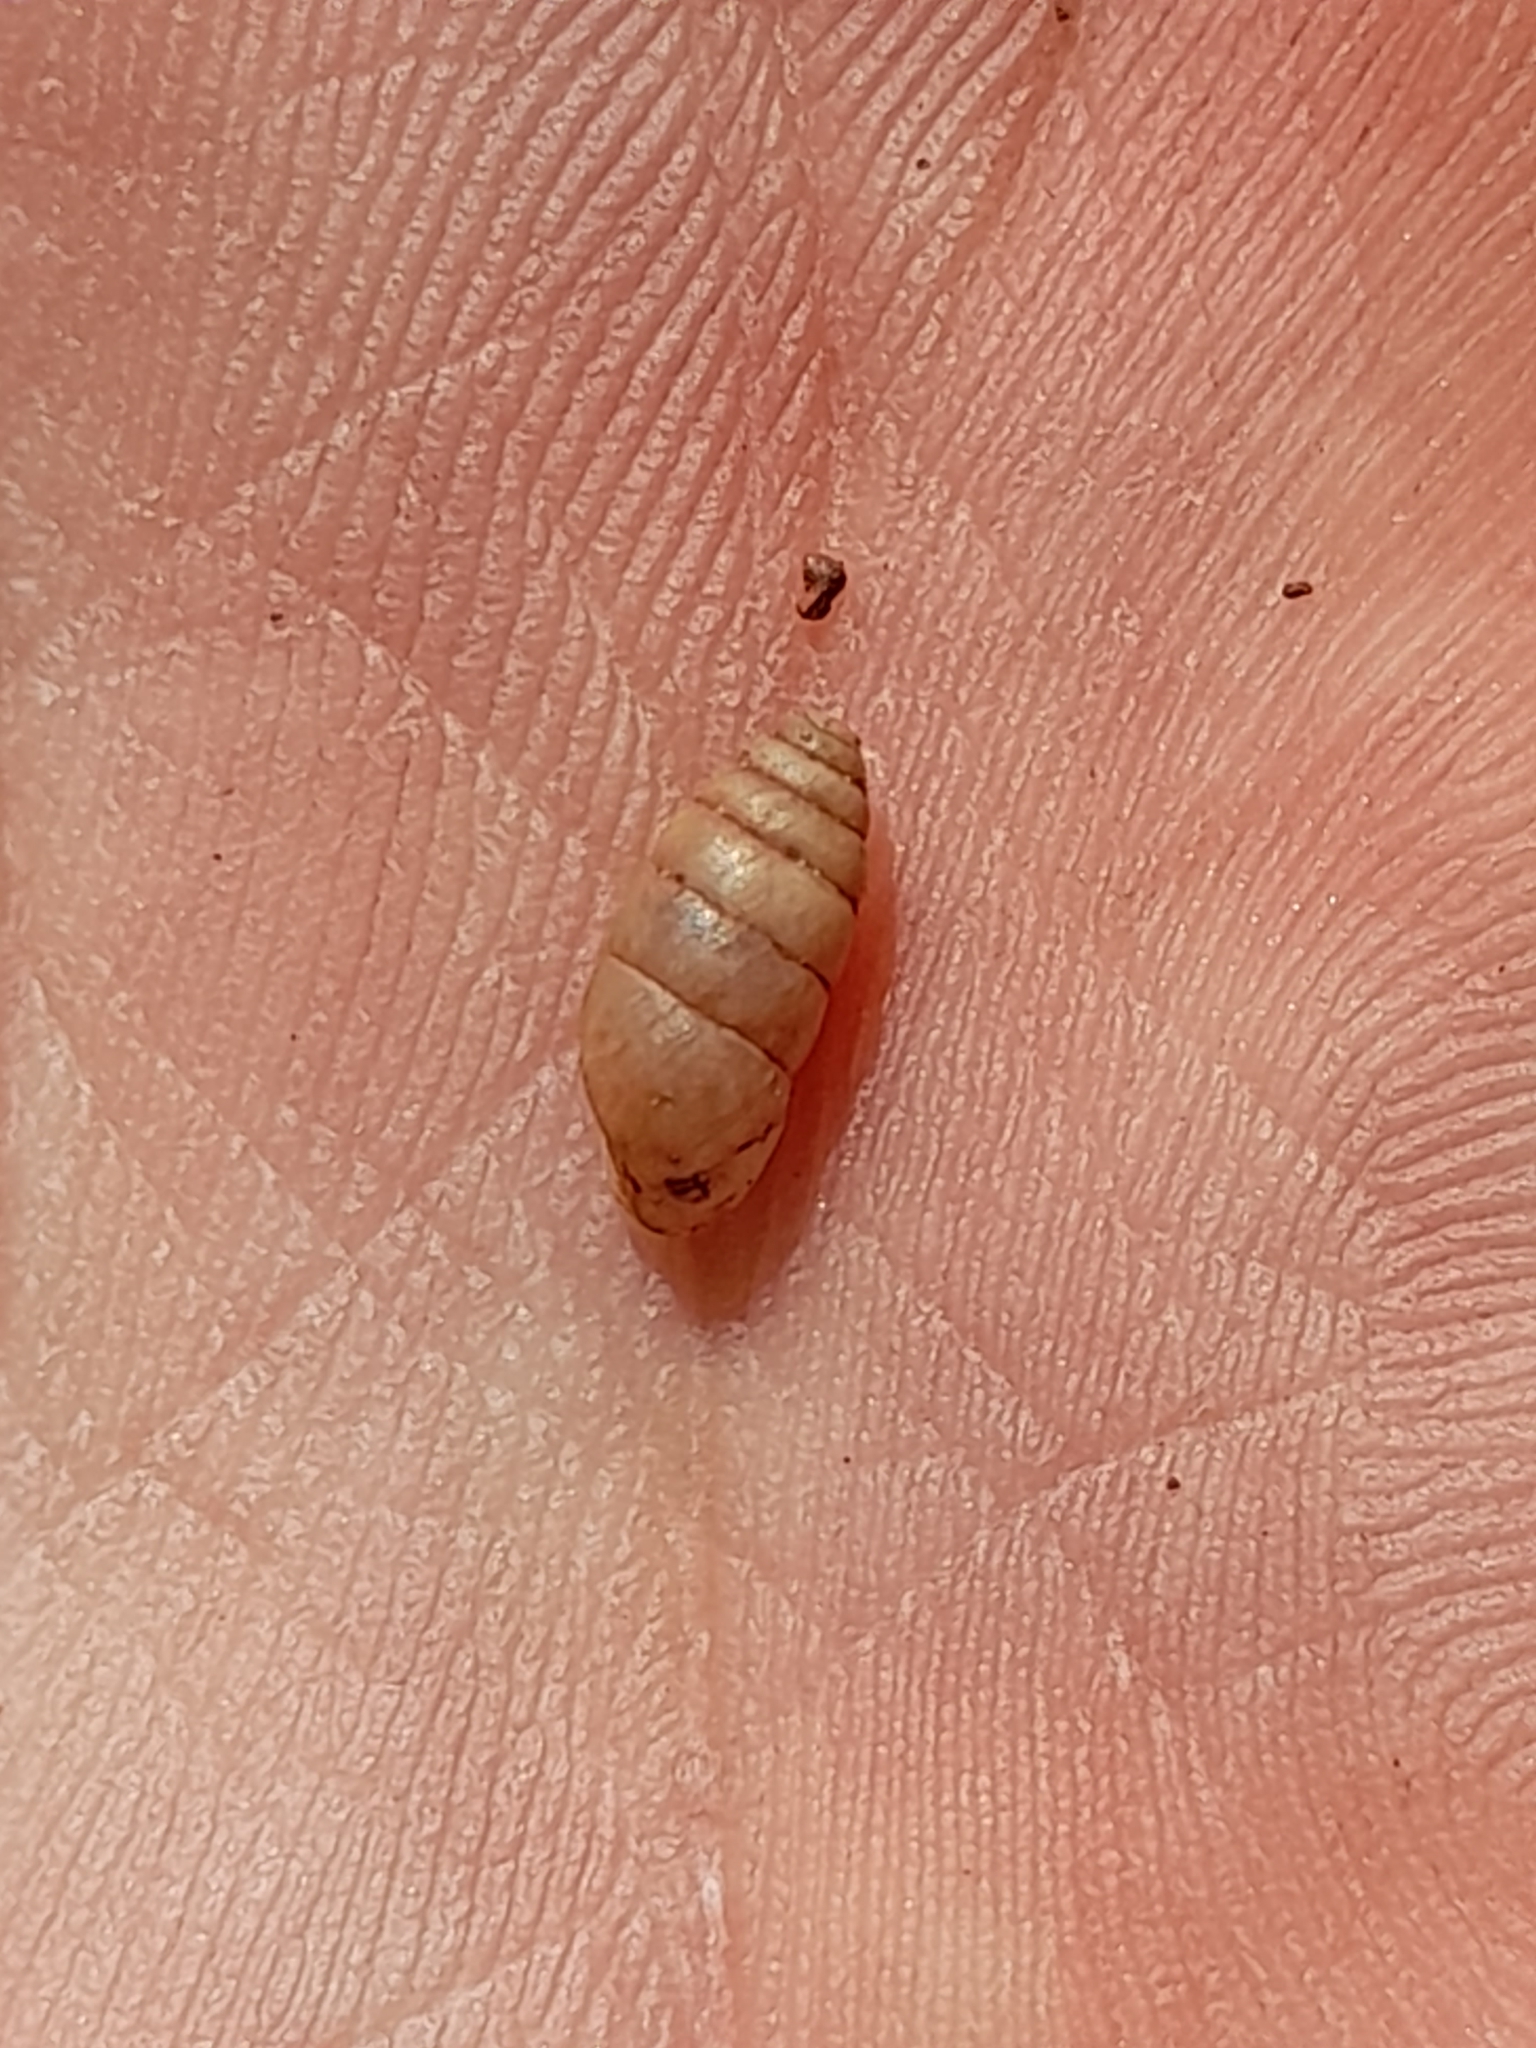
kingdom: Animalia
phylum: Mollusca
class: Gastropoda
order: Stylommatophora
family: Enidae
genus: Jaminia
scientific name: Jaminia quadridens
